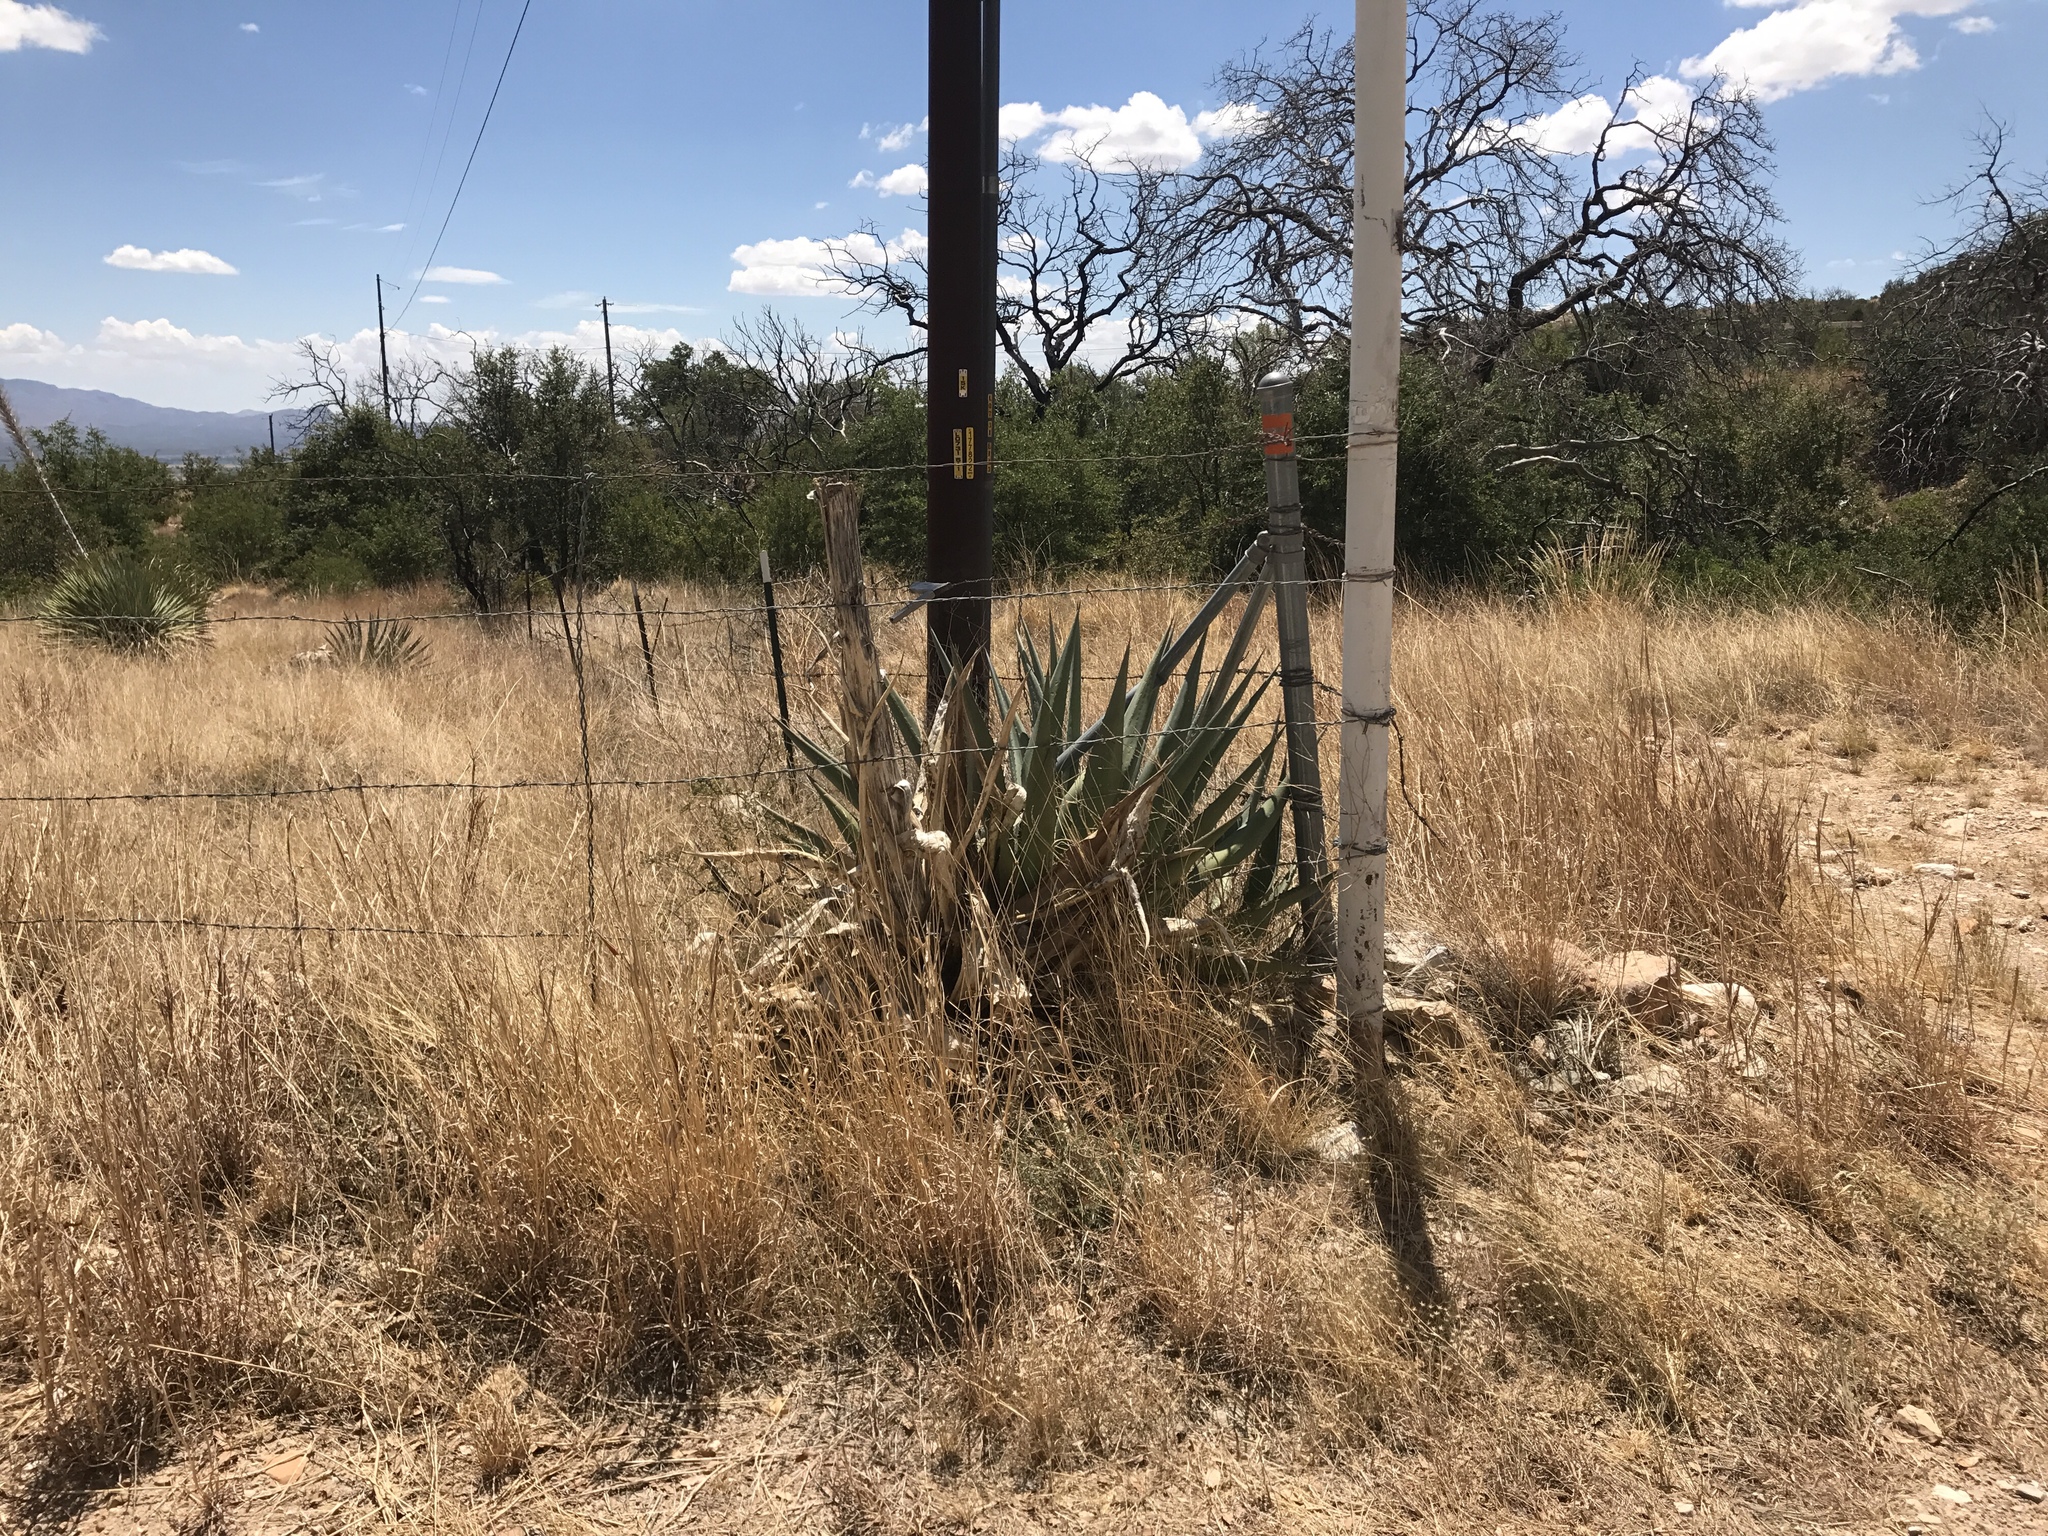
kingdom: Plantae
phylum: Tracheophyta
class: Liliopsida
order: Asparagales
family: Asparagaceae
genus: Agave
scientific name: Agave palmeri
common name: Palmer agave
